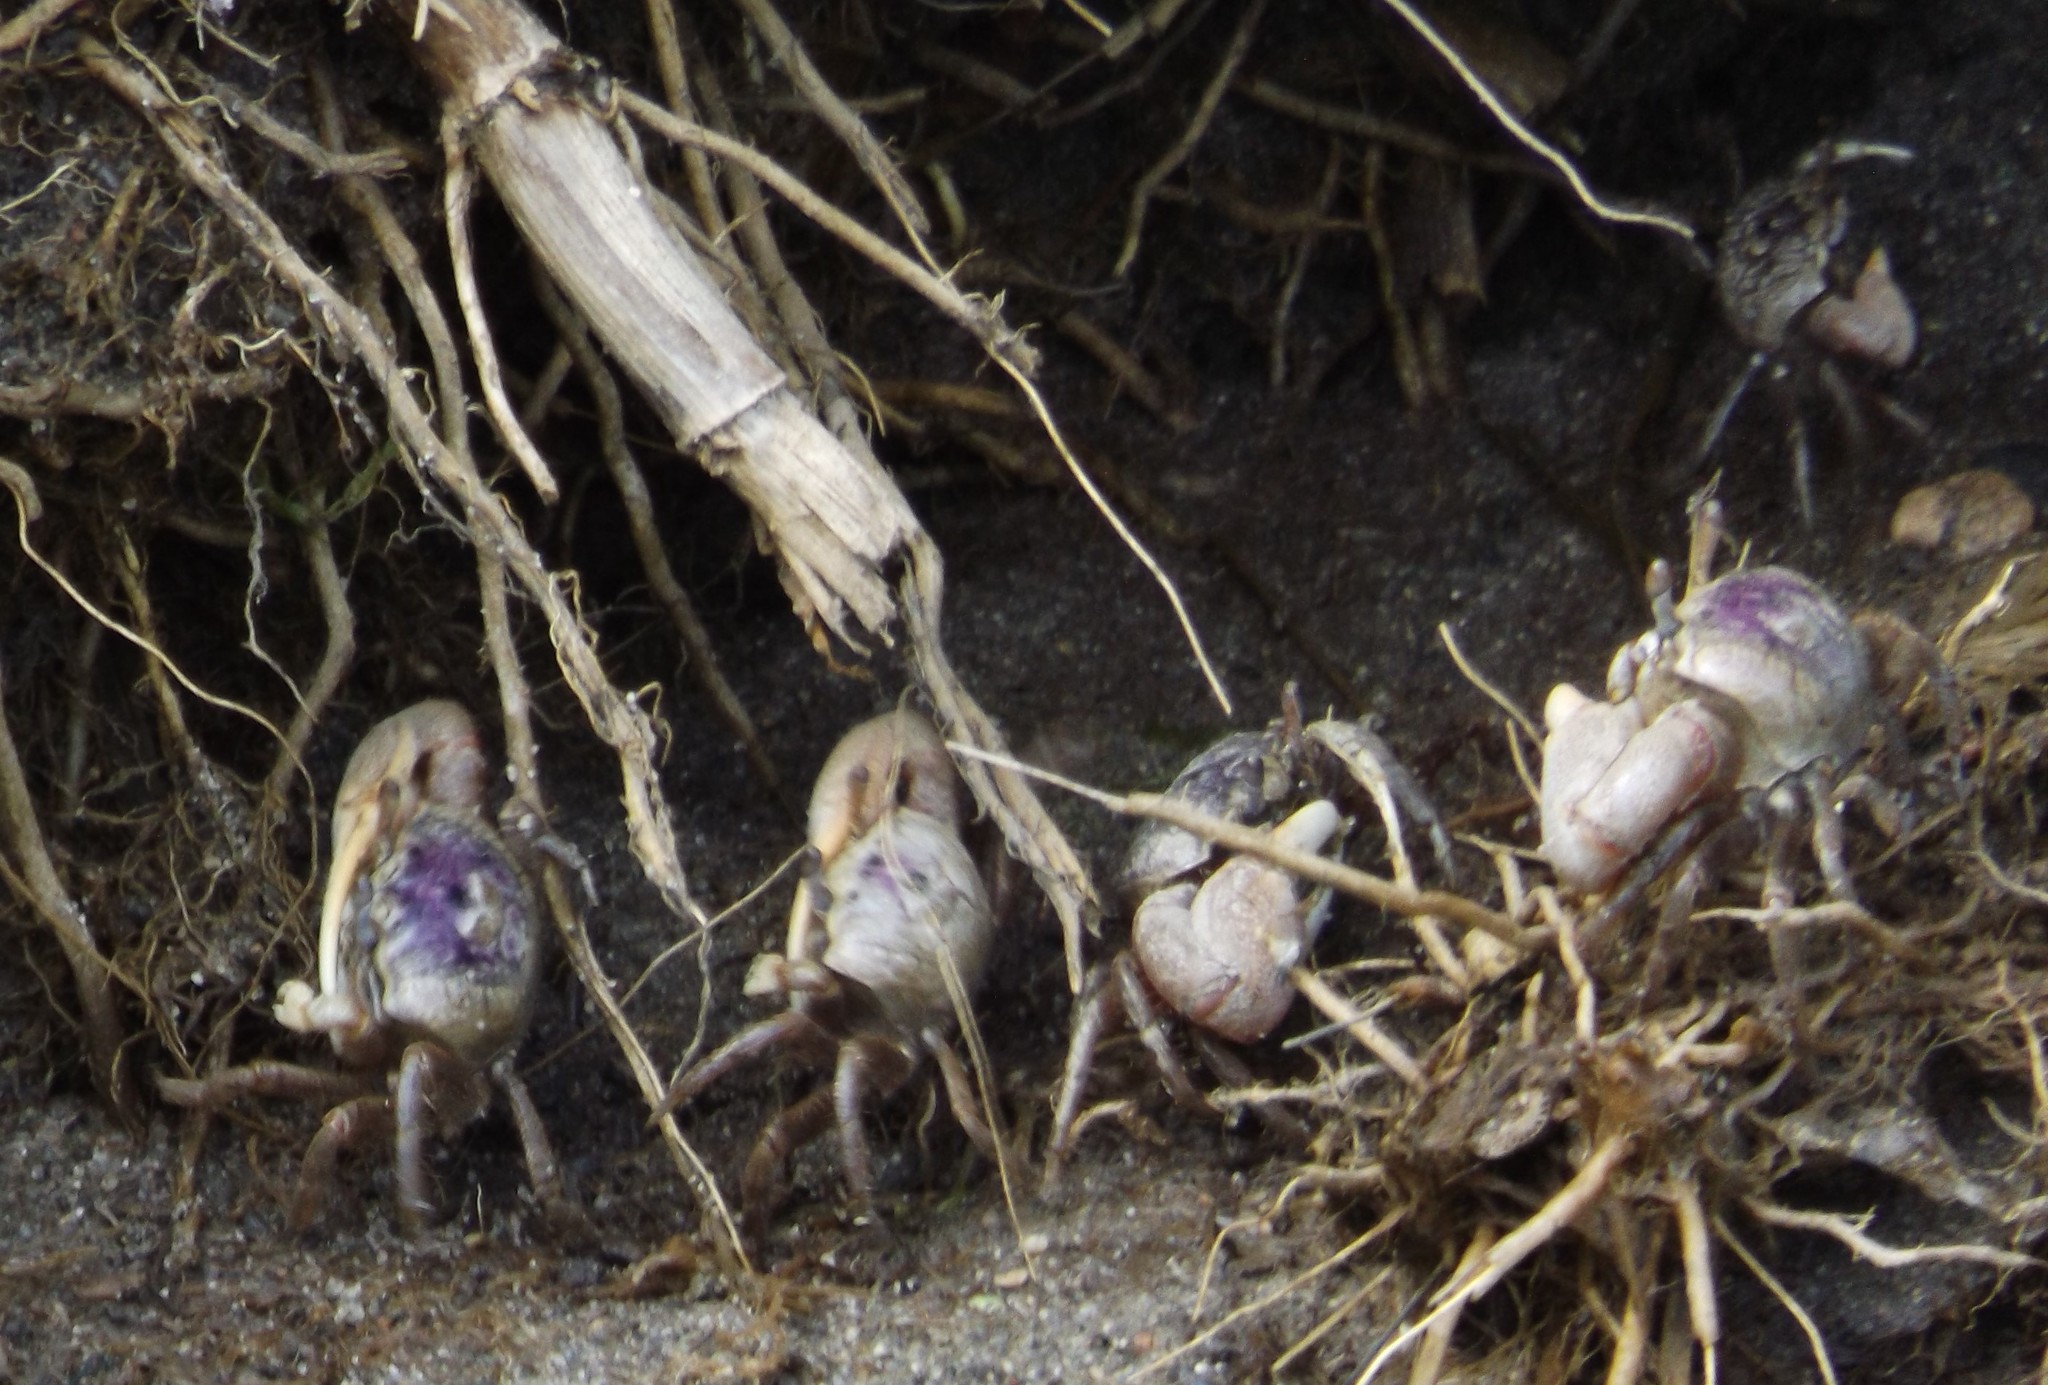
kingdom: Animalia
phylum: Arthropoda
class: Malacostraca
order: Decapoda
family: Ocypodidae
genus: Leptuca
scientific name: Leptuca pugilator
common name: Atlantic sand fiddler crab
